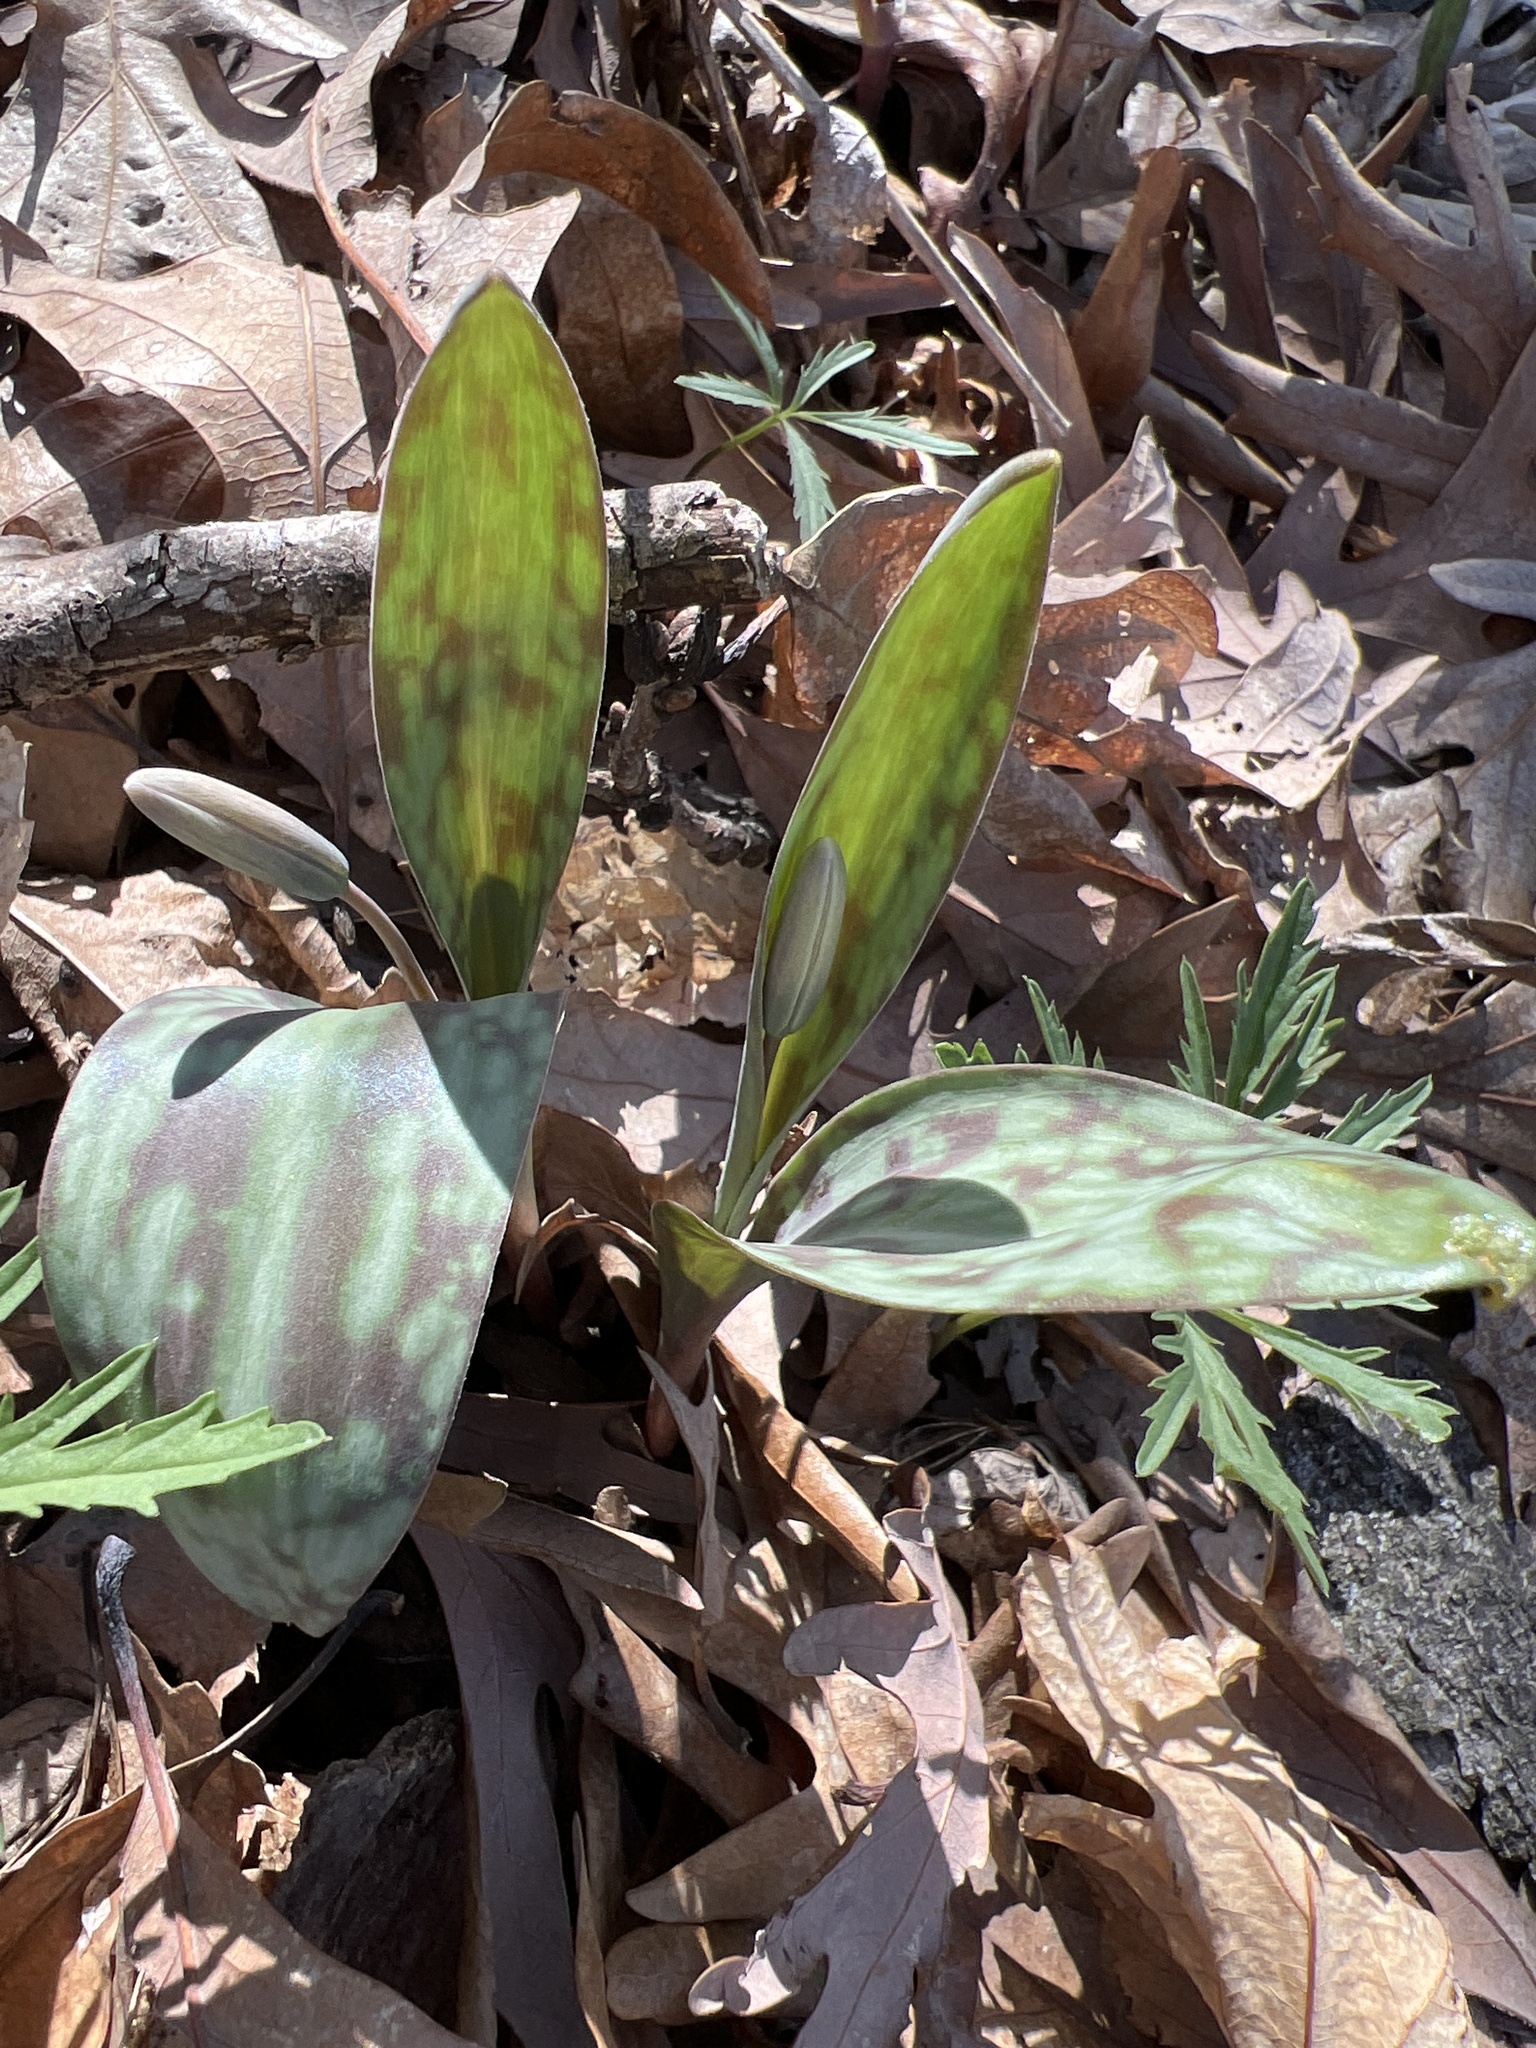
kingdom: Plantae
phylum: Tracheophyta
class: Liliopsida
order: Liliales
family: Liliaceae
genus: Erythronium
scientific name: Erythronium albidum
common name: White trout-lily
